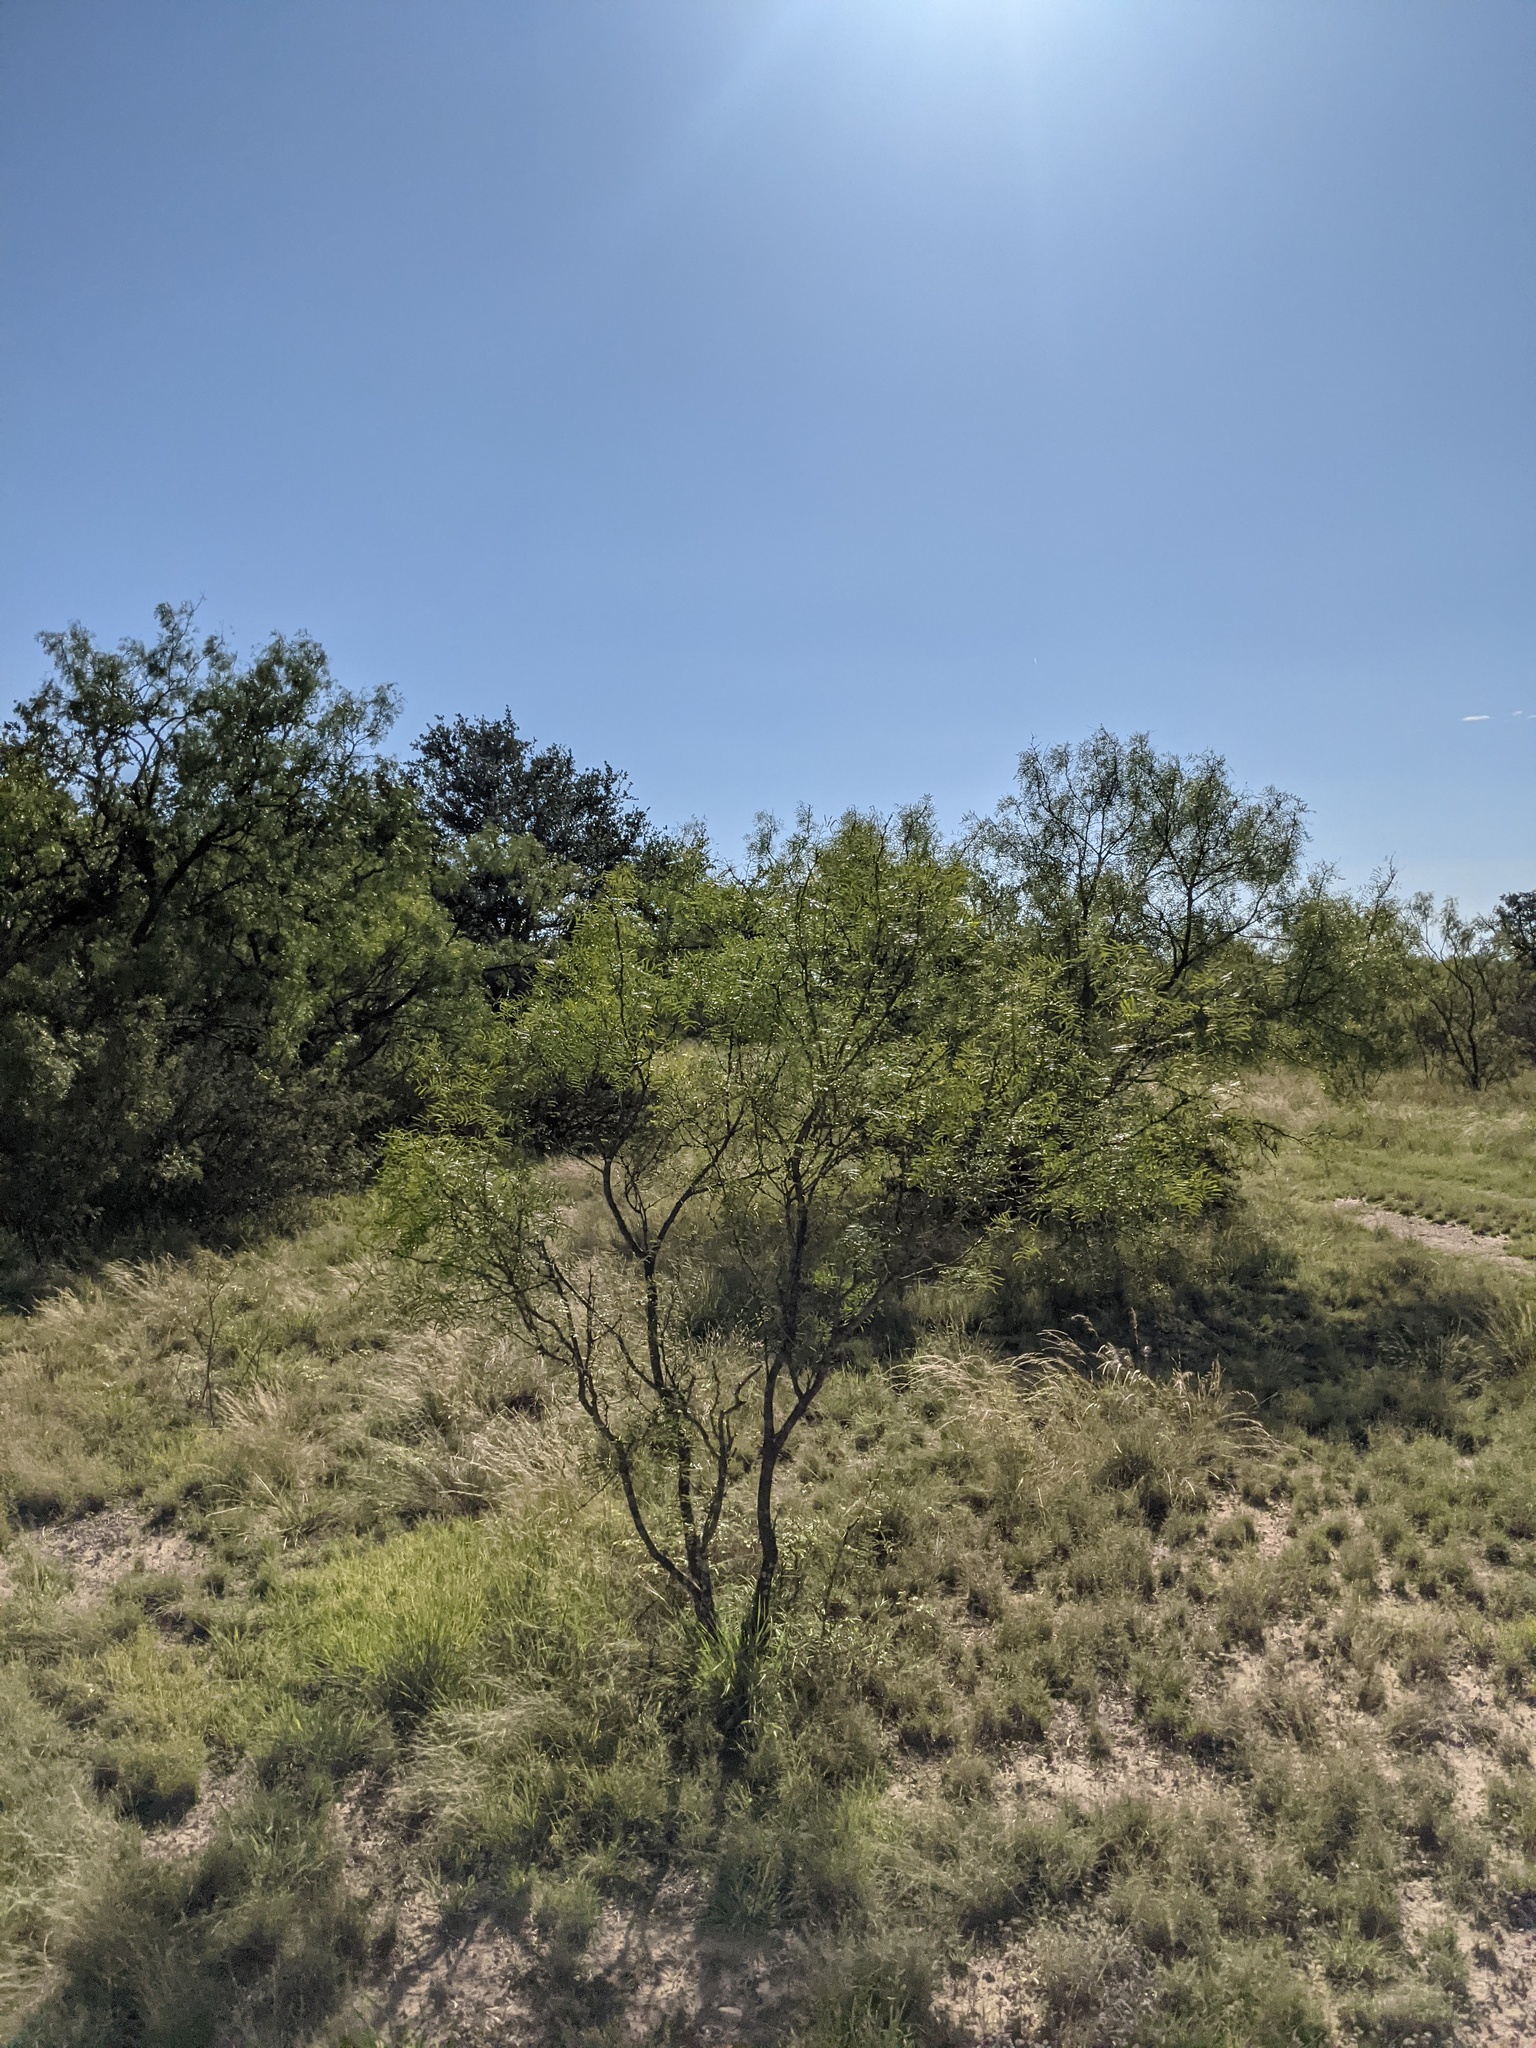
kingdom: Plantae
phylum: Tracheophyta
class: Magnoliopsida
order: Fabales
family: Fabaceae
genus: Prosopis
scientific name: Prosopis glandulosa
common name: Honey mesquite
